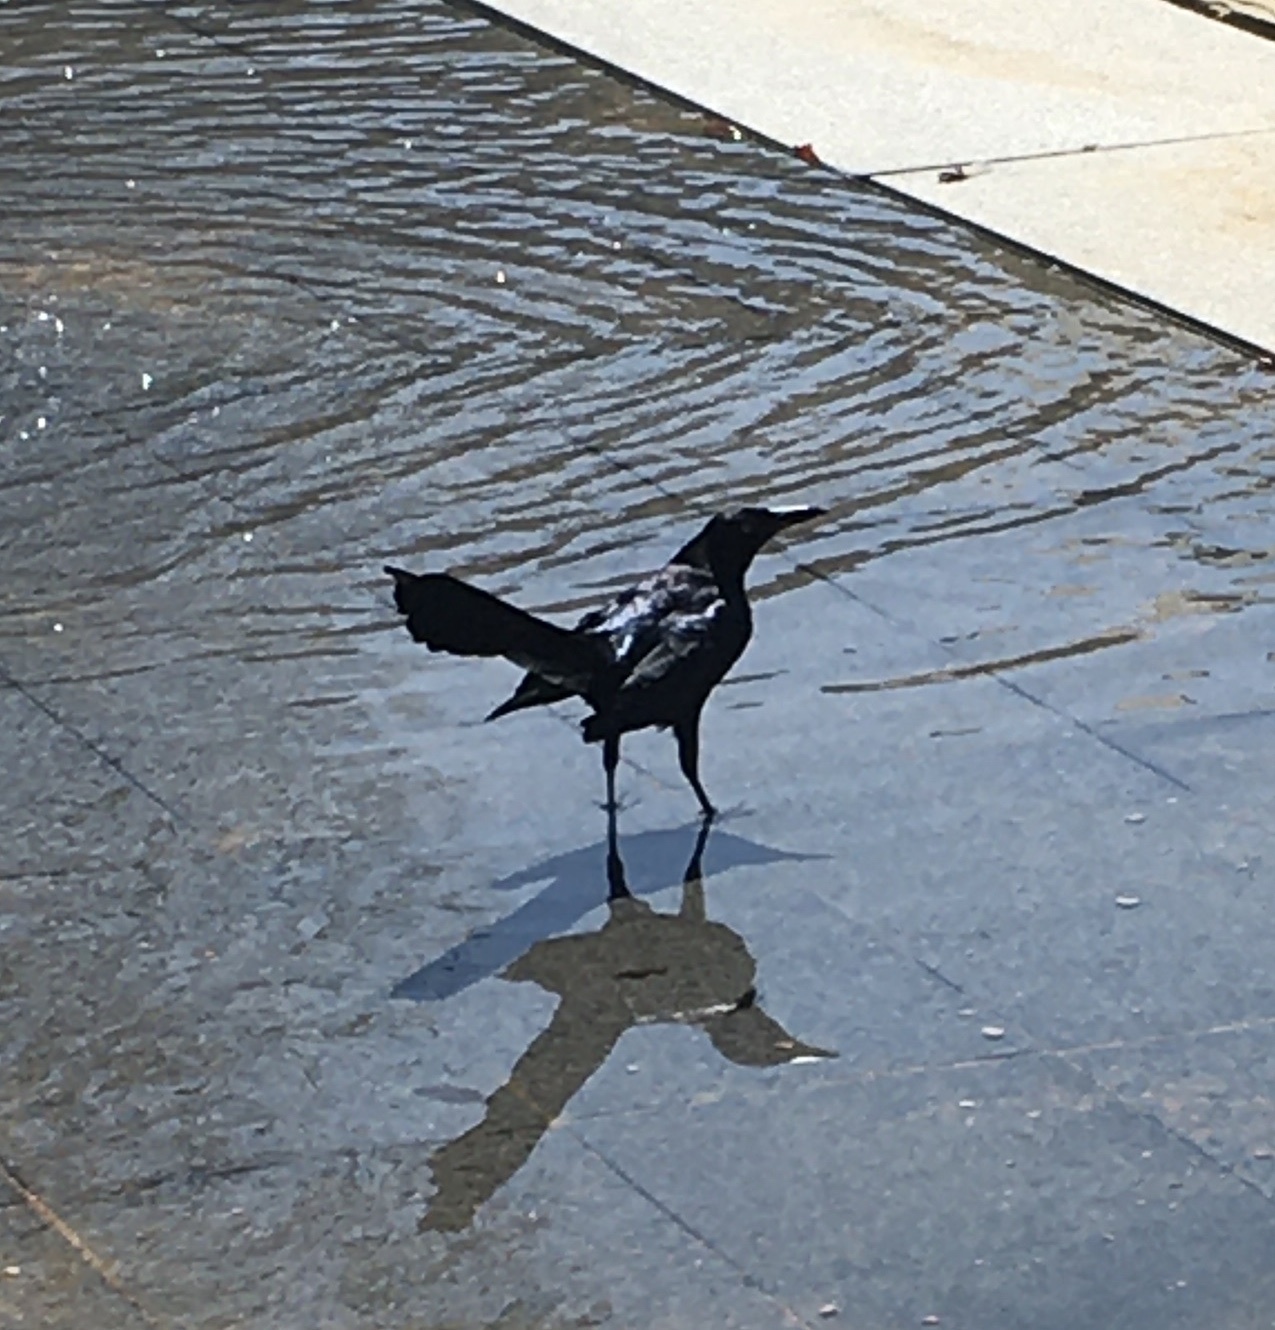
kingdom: Animalia
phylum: Chordata
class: Aves
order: Passeriformes
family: Icteridae
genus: Quiscalus
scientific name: Quiscalus mexicanus
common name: Great-tailed grackle
